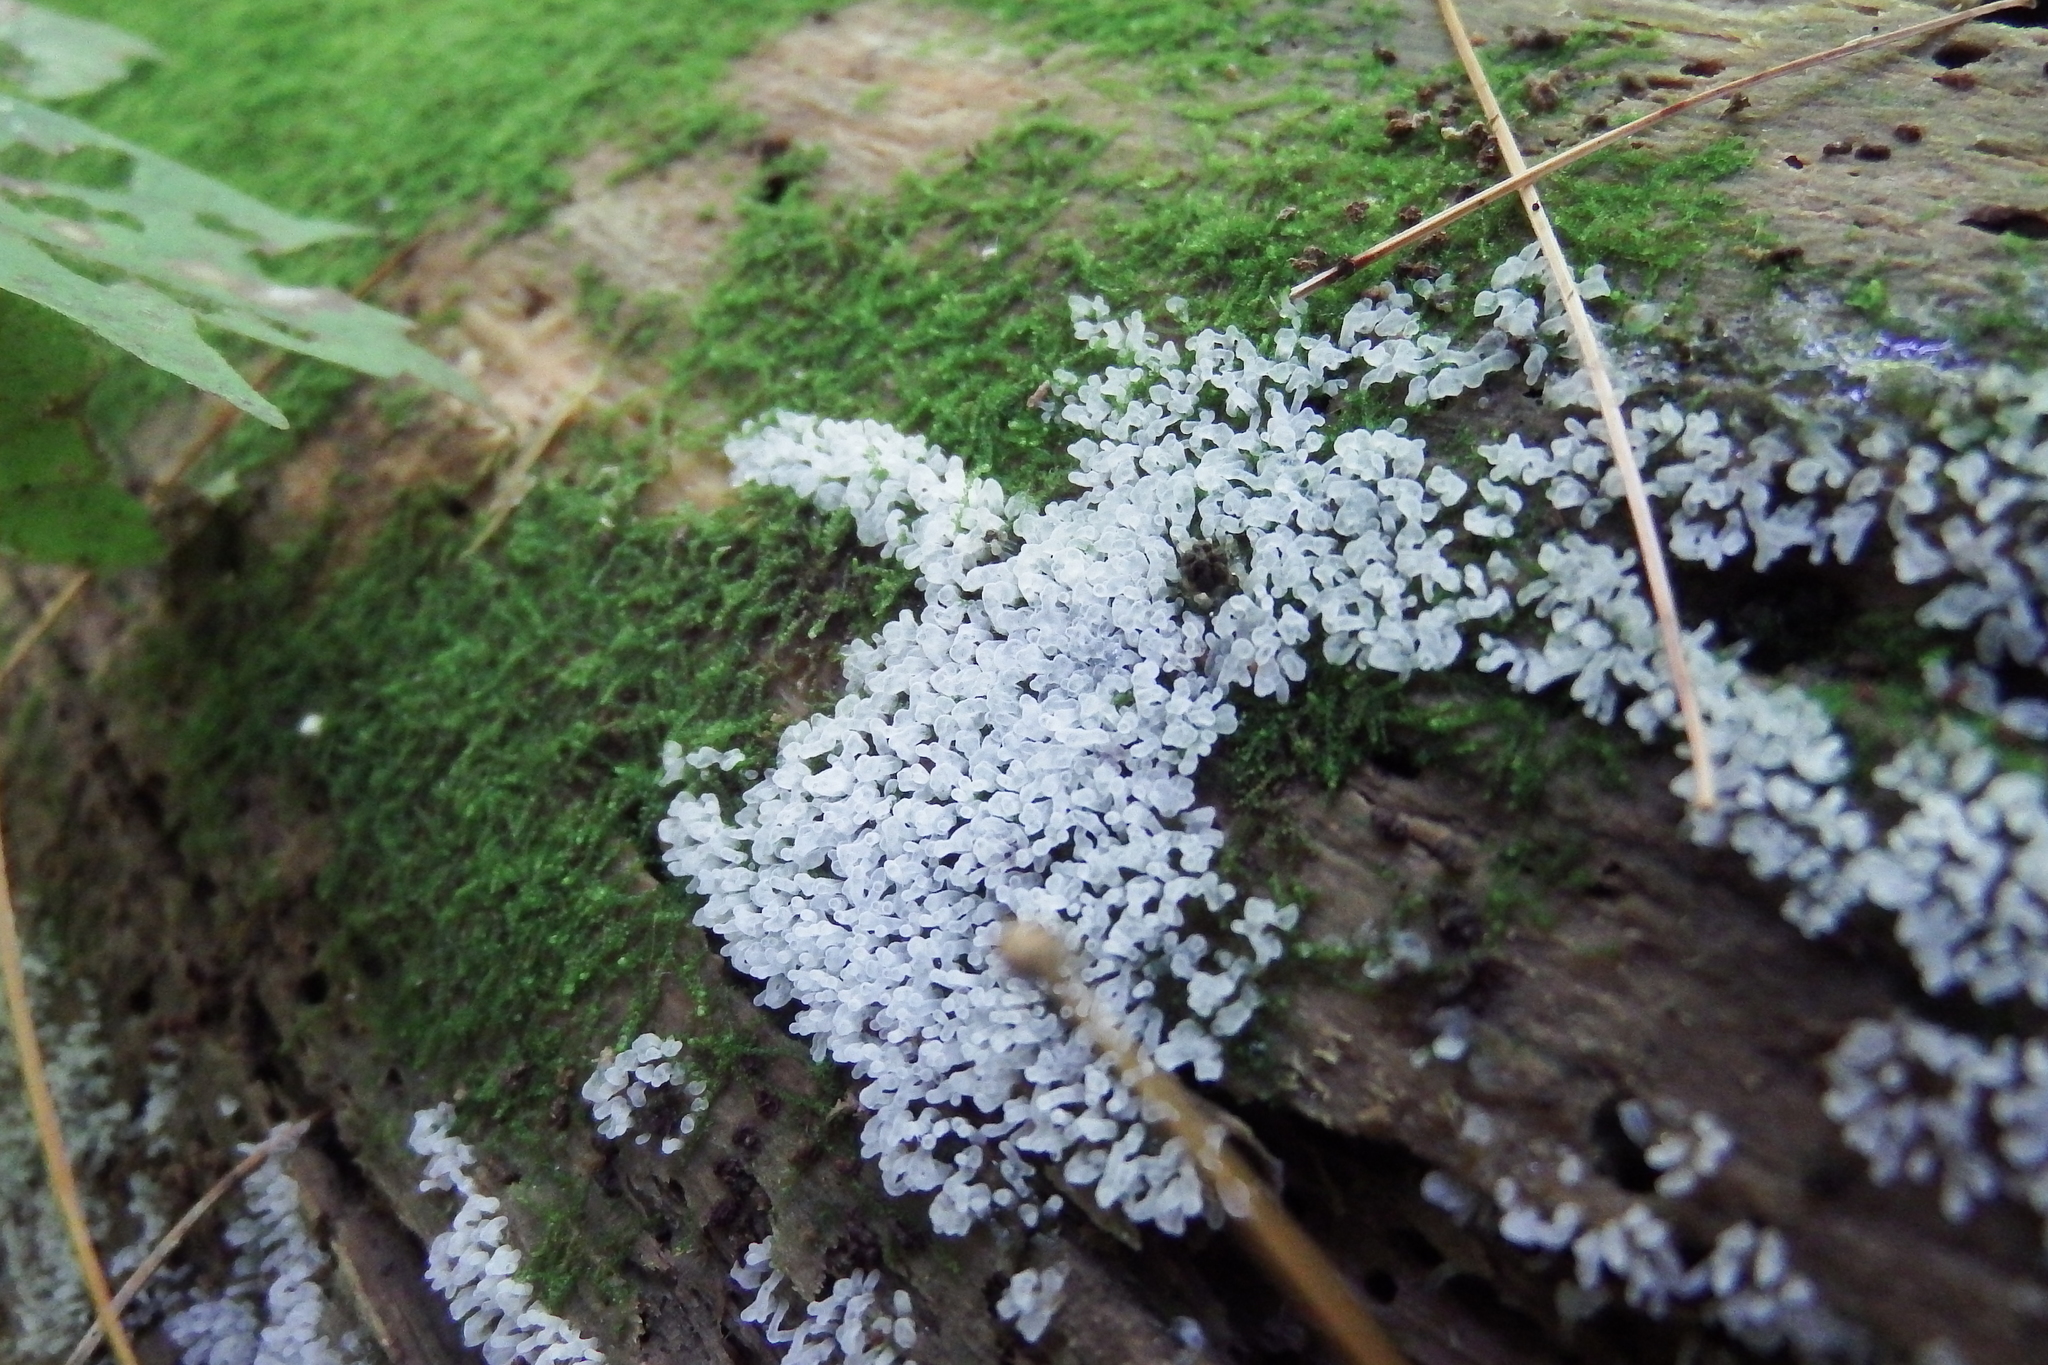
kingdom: Protozoa
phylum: Mycetozoa
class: Protosteliomycetes
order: Ceratiomyxales
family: Ceratiomyxaceae
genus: Ceratiomyxa
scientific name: Ceratiomyxa fruticulosa
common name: Honeycomb coral slime mold
